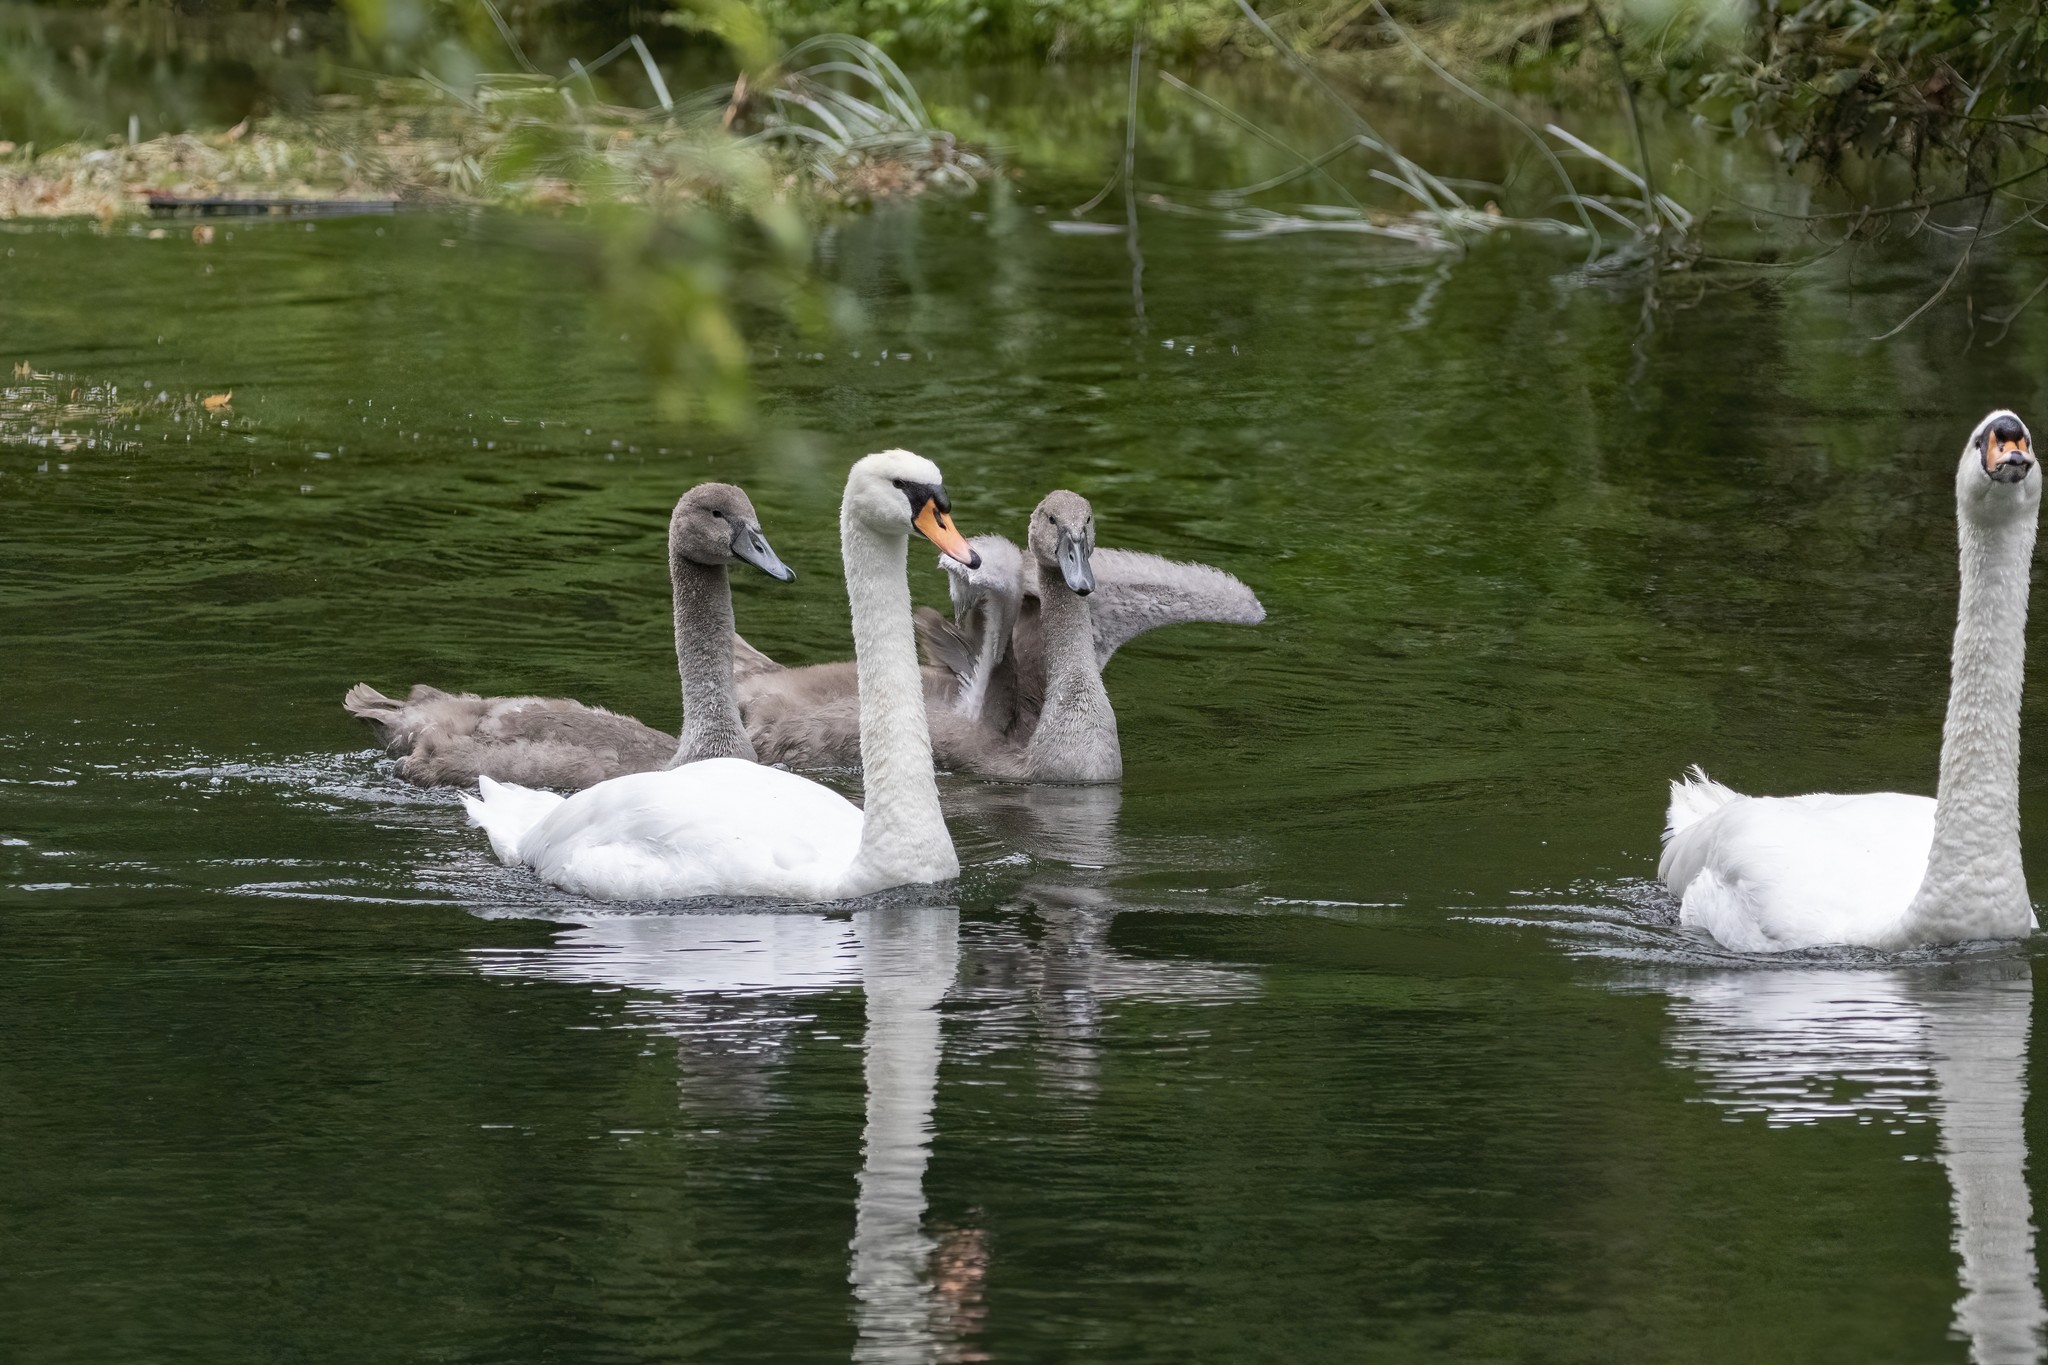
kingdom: Animalia
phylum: Chordata
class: Aves
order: Anseriformes
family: Anatidae
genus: Cygnus
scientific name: Cygnus olor
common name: Mute swan
